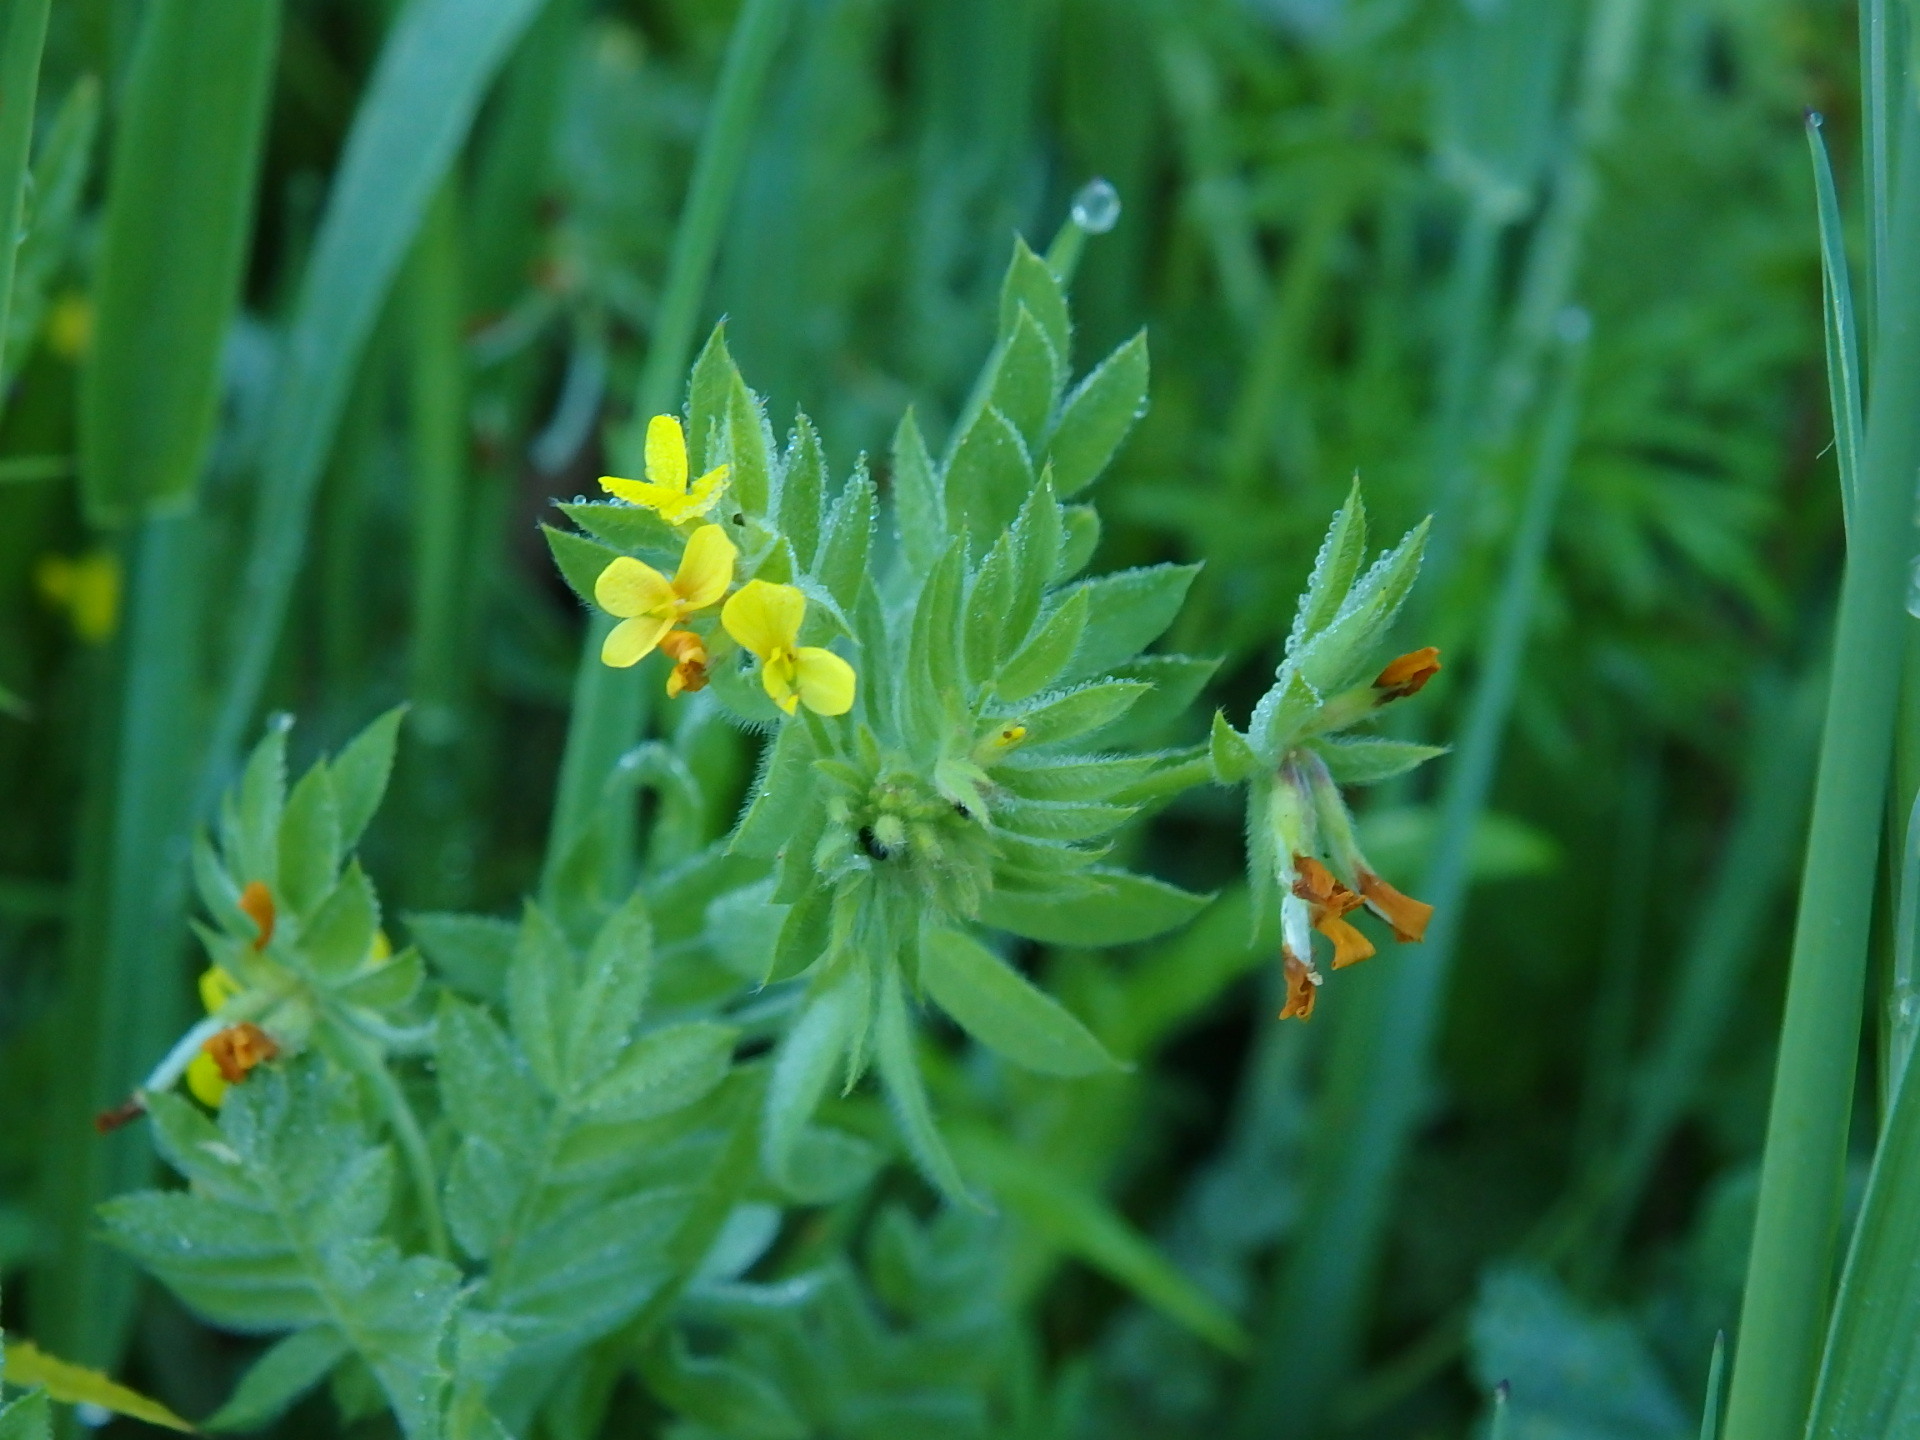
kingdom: Plantae
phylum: Tracheophyta
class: Magnoliopsida
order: Fabales
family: Fabaceae
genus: Ornithopus
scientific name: Ornithopus compressus
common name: Yellow serradella
